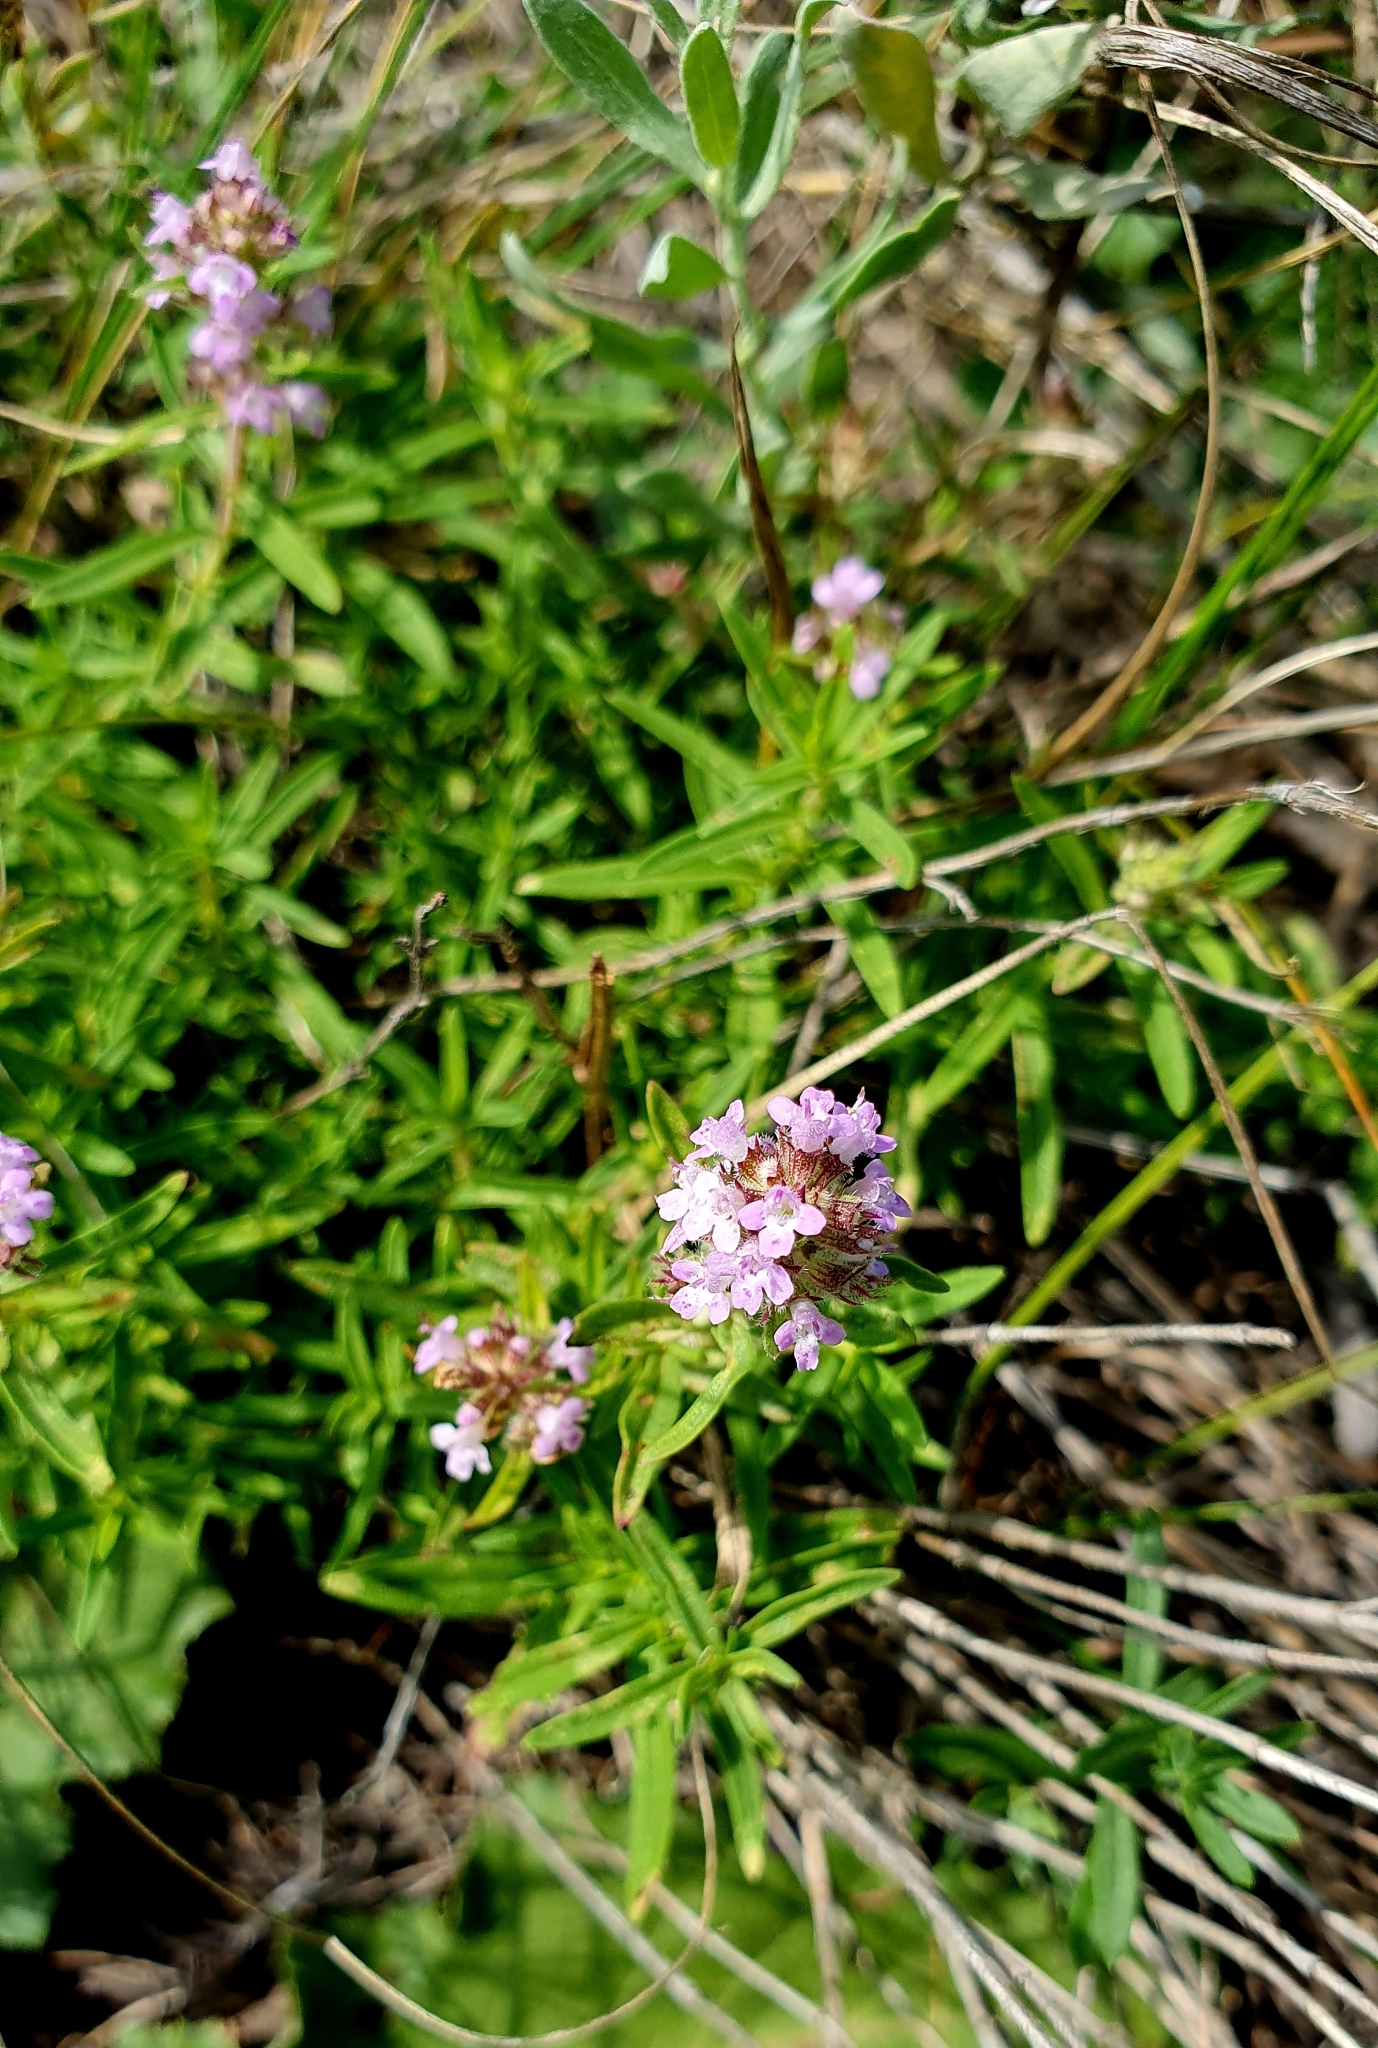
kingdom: Plantae
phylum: Tracheophyta
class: Magnoliopsida
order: Lamiales
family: Lamiaceae
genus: Thymus
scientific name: Thymus pannonicus
